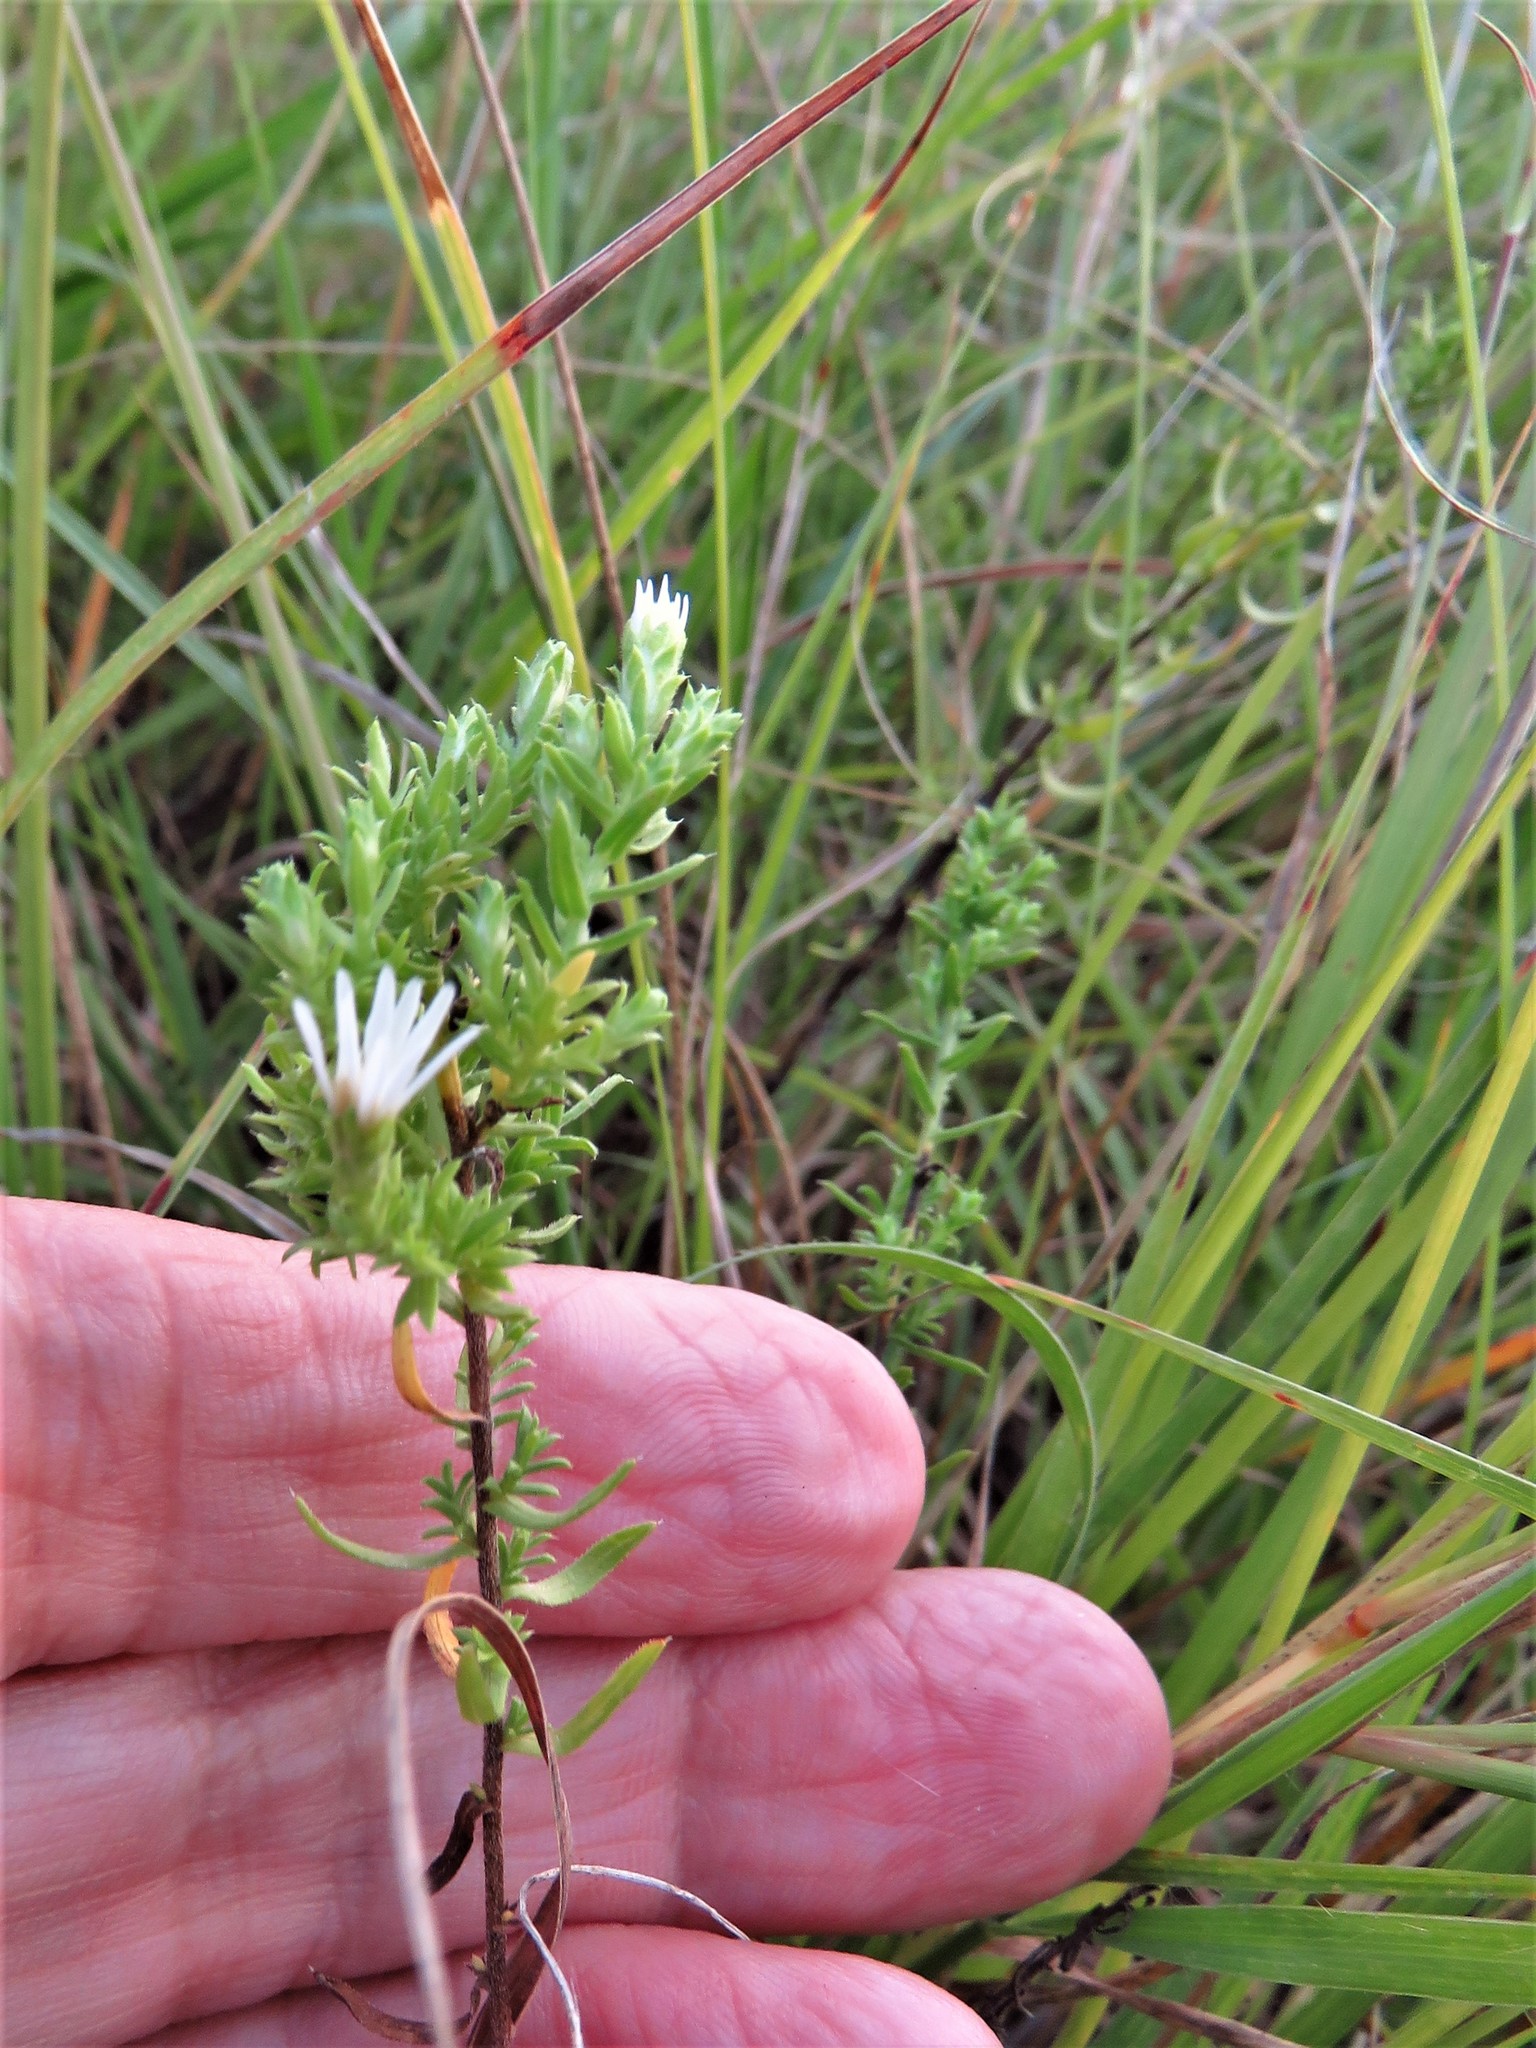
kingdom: Plantae
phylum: Tracheophyta
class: Magnoliopsida
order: Asterales
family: Asteraceae
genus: Symphyotrichum
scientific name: Symphyotrichum ericoides
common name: Heath aster
